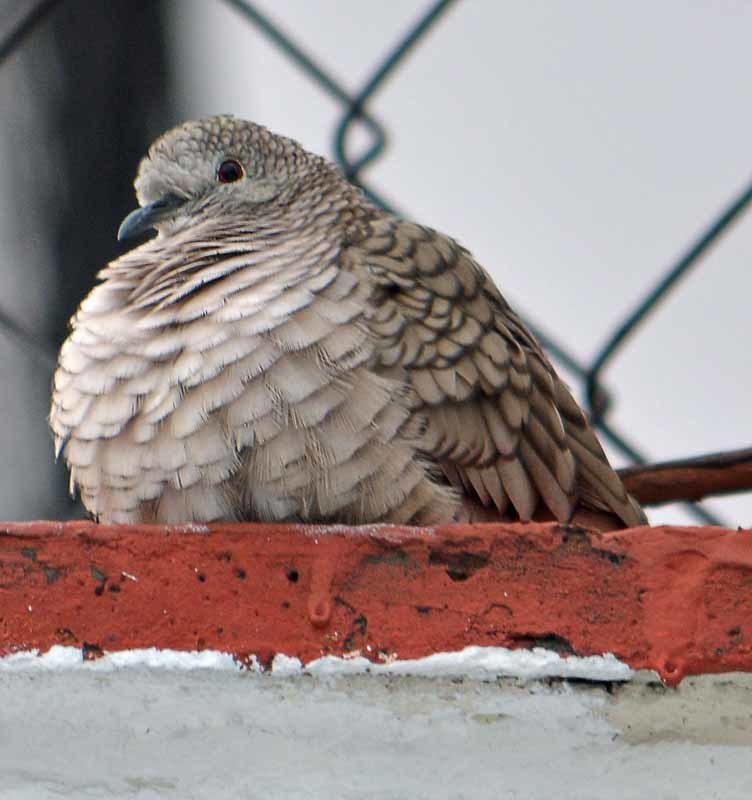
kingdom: Animalia
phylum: Chordata
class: Aves
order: Columbiformes
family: Columbidae
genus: Columbina
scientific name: Columbina inca
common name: Inca dove
